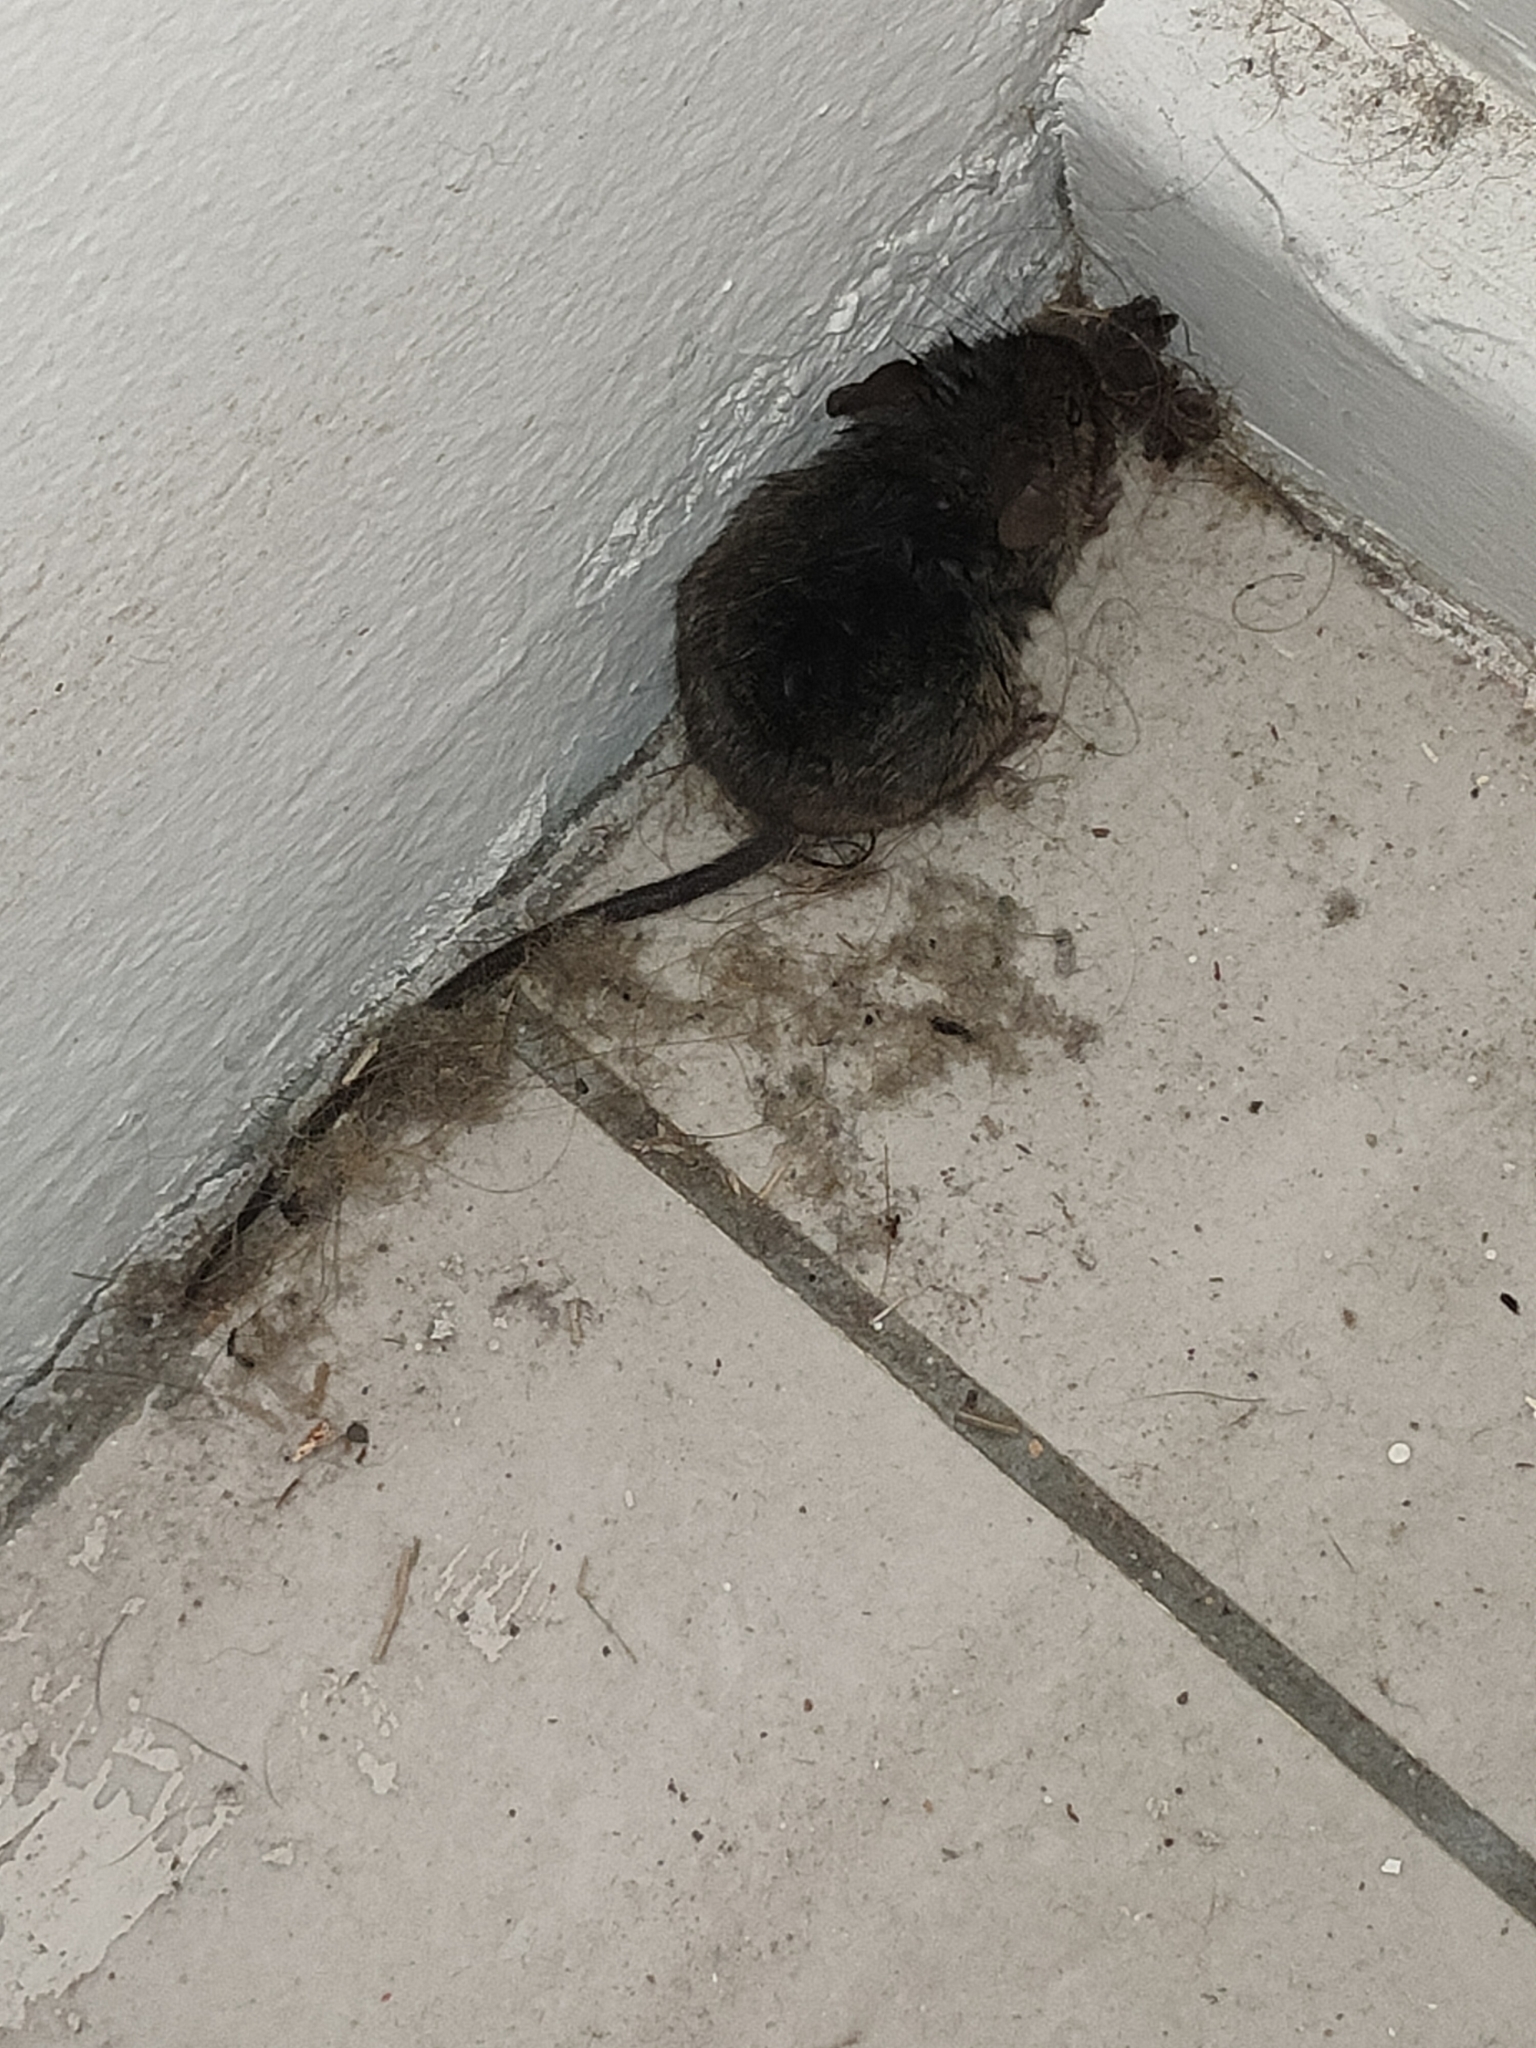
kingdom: Animalia
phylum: Chordata
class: Mammalia
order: Rodentia
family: Muridae
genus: Rattus
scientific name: Rattus rattus
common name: Black rat
